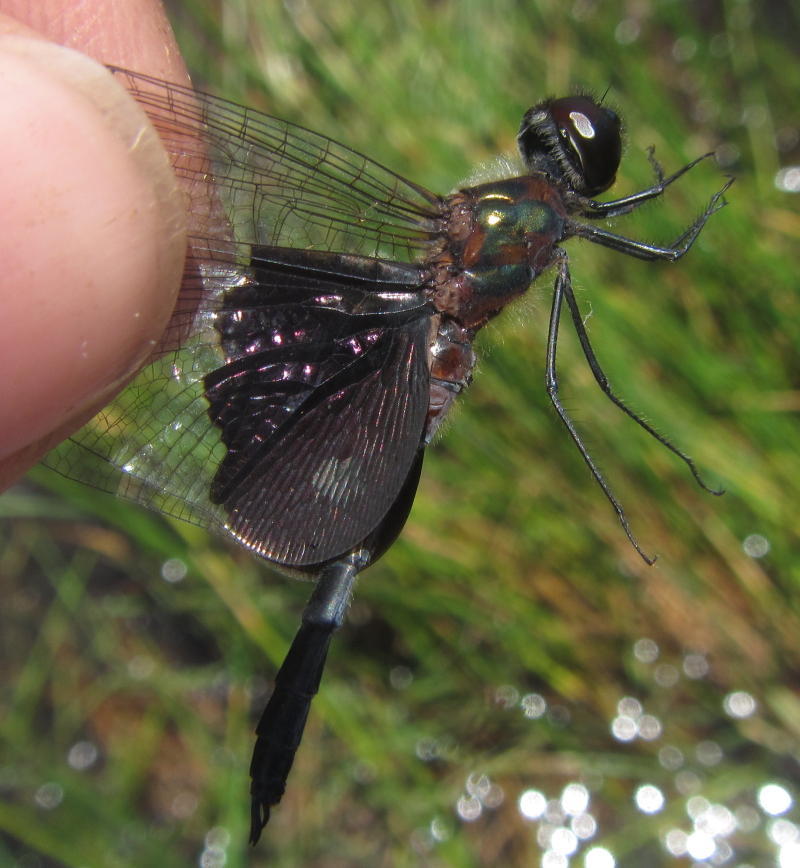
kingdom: Animalia
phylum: Arthropoda
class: Insecta
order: Odonata
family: Libellulidae
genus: Rhyothemis
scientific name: Rhyothemis semihyalina
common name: Phantom flutterer
